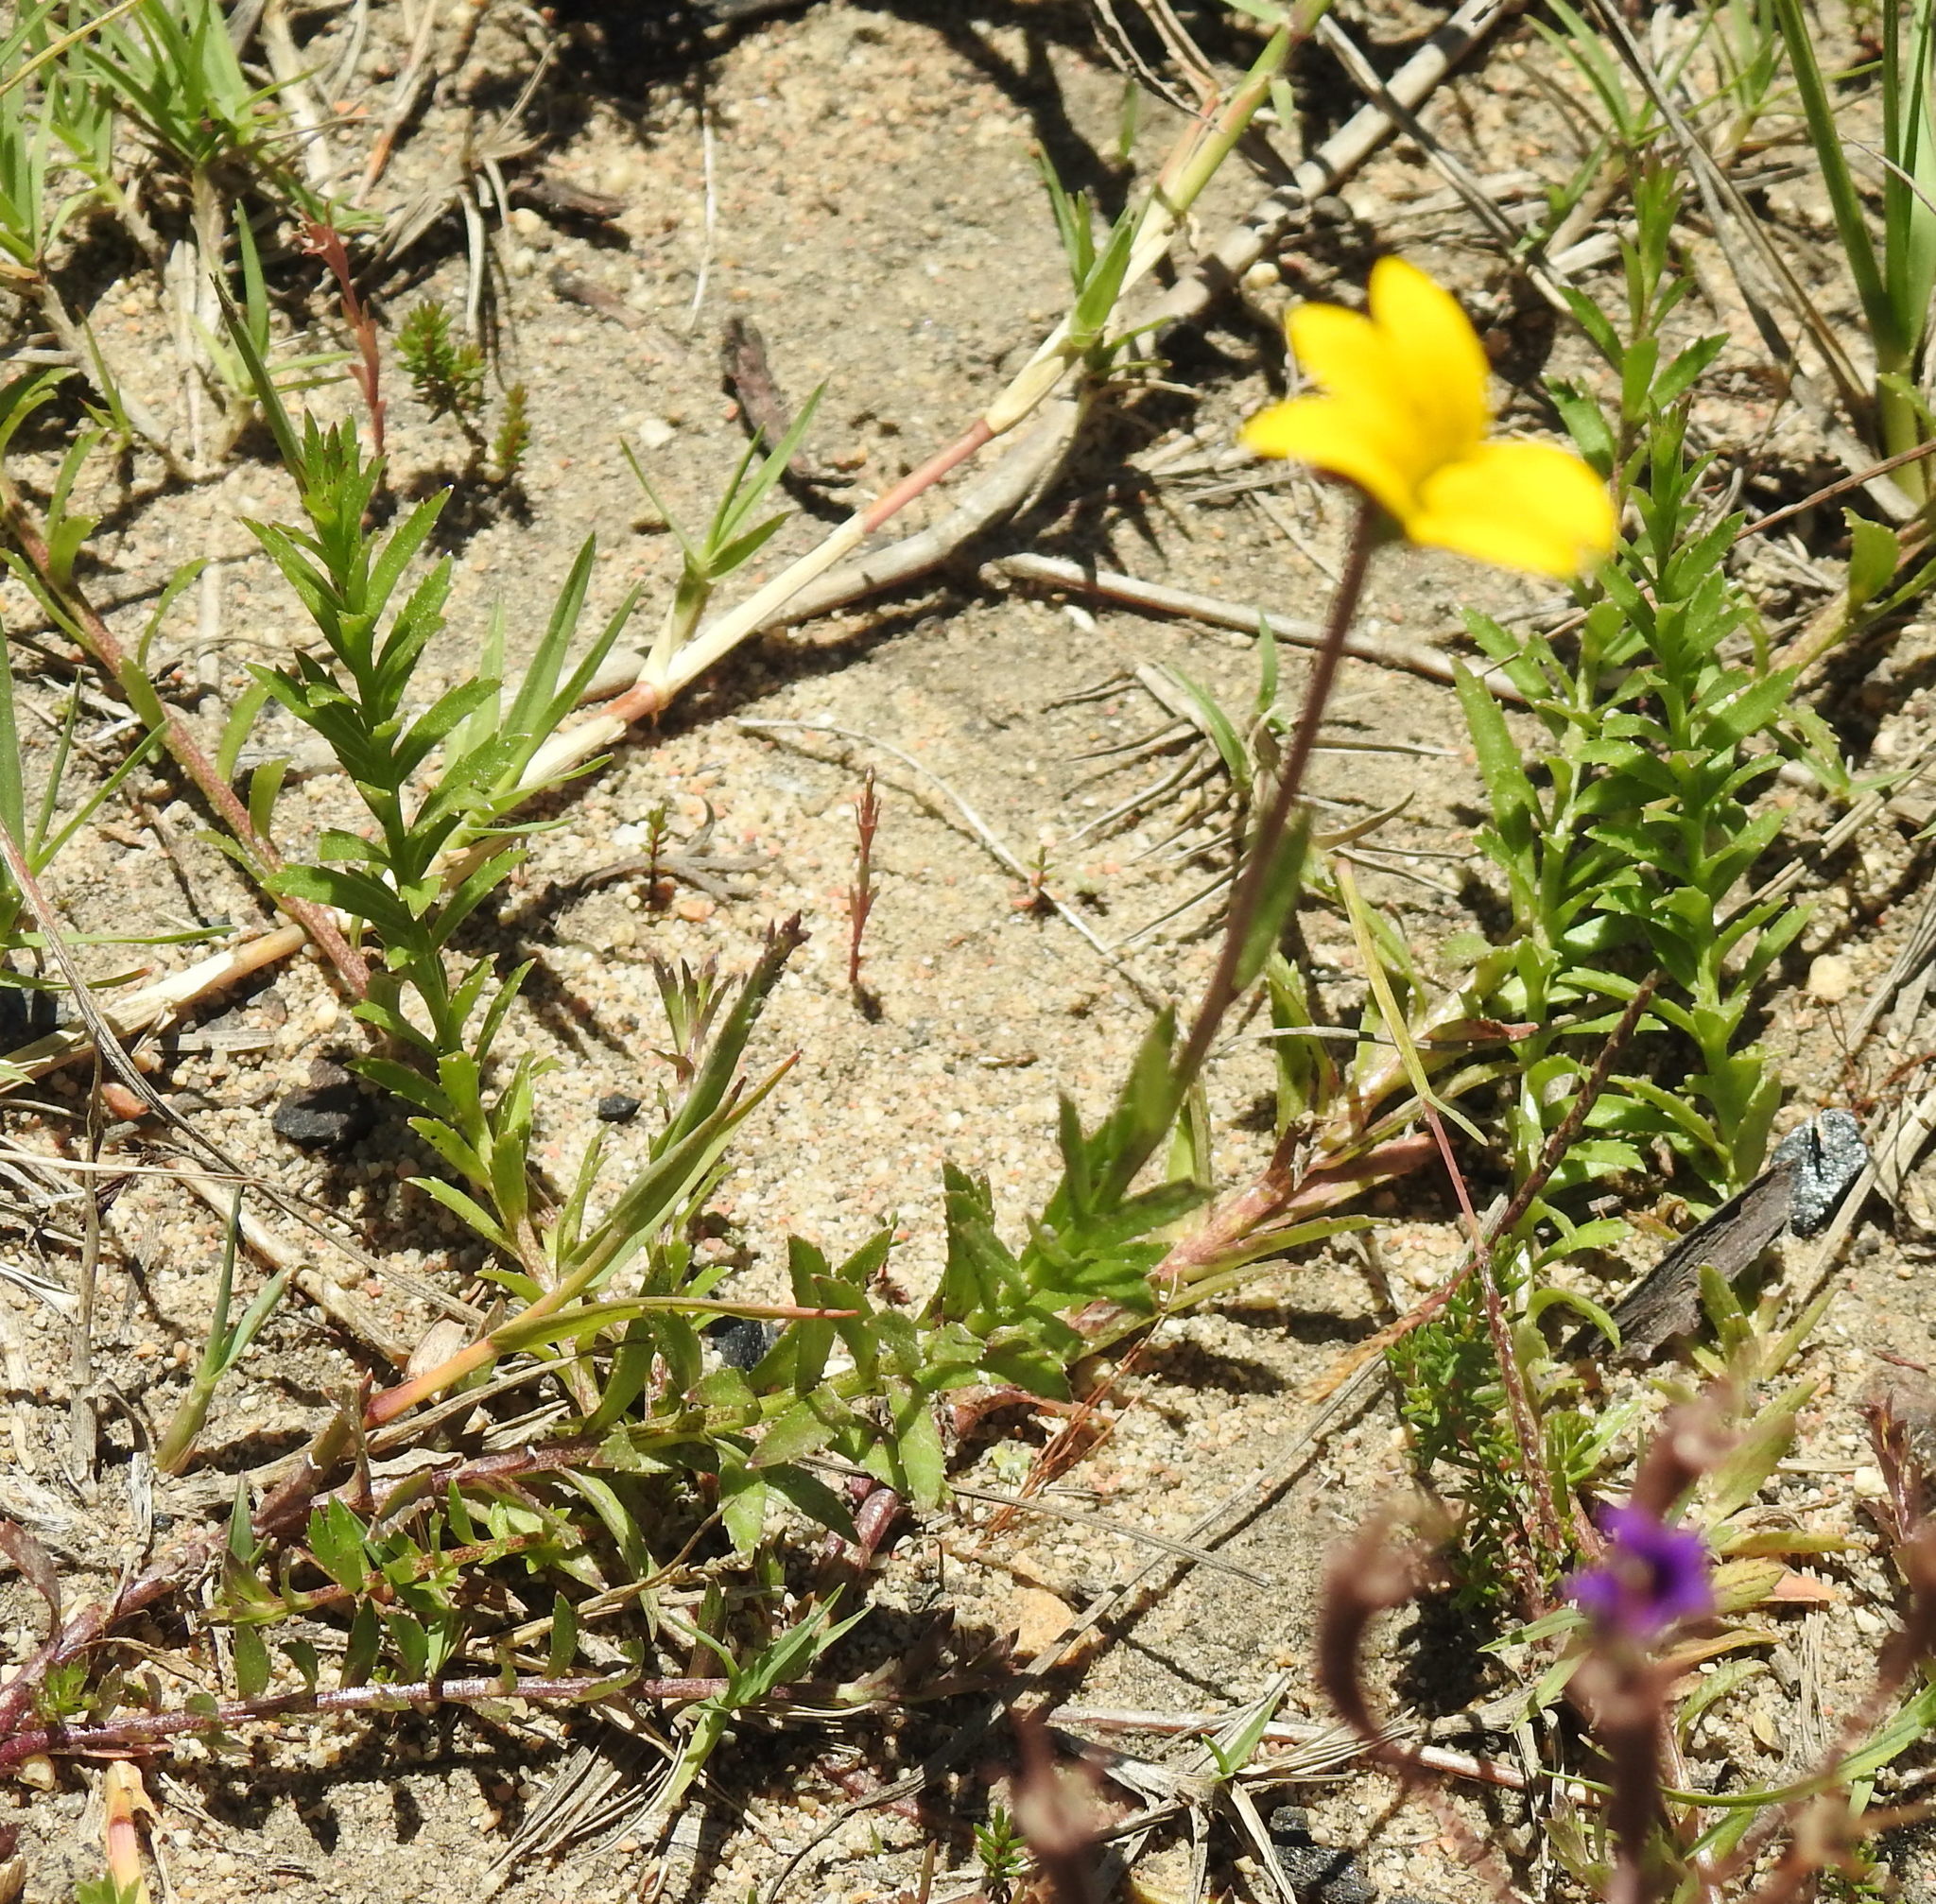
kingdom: Plantae
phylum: Tracheophyta
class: Magnoliopsida
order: Asterales
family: Campanulaceae
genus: Monopsis
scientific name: Monopsis lutea
